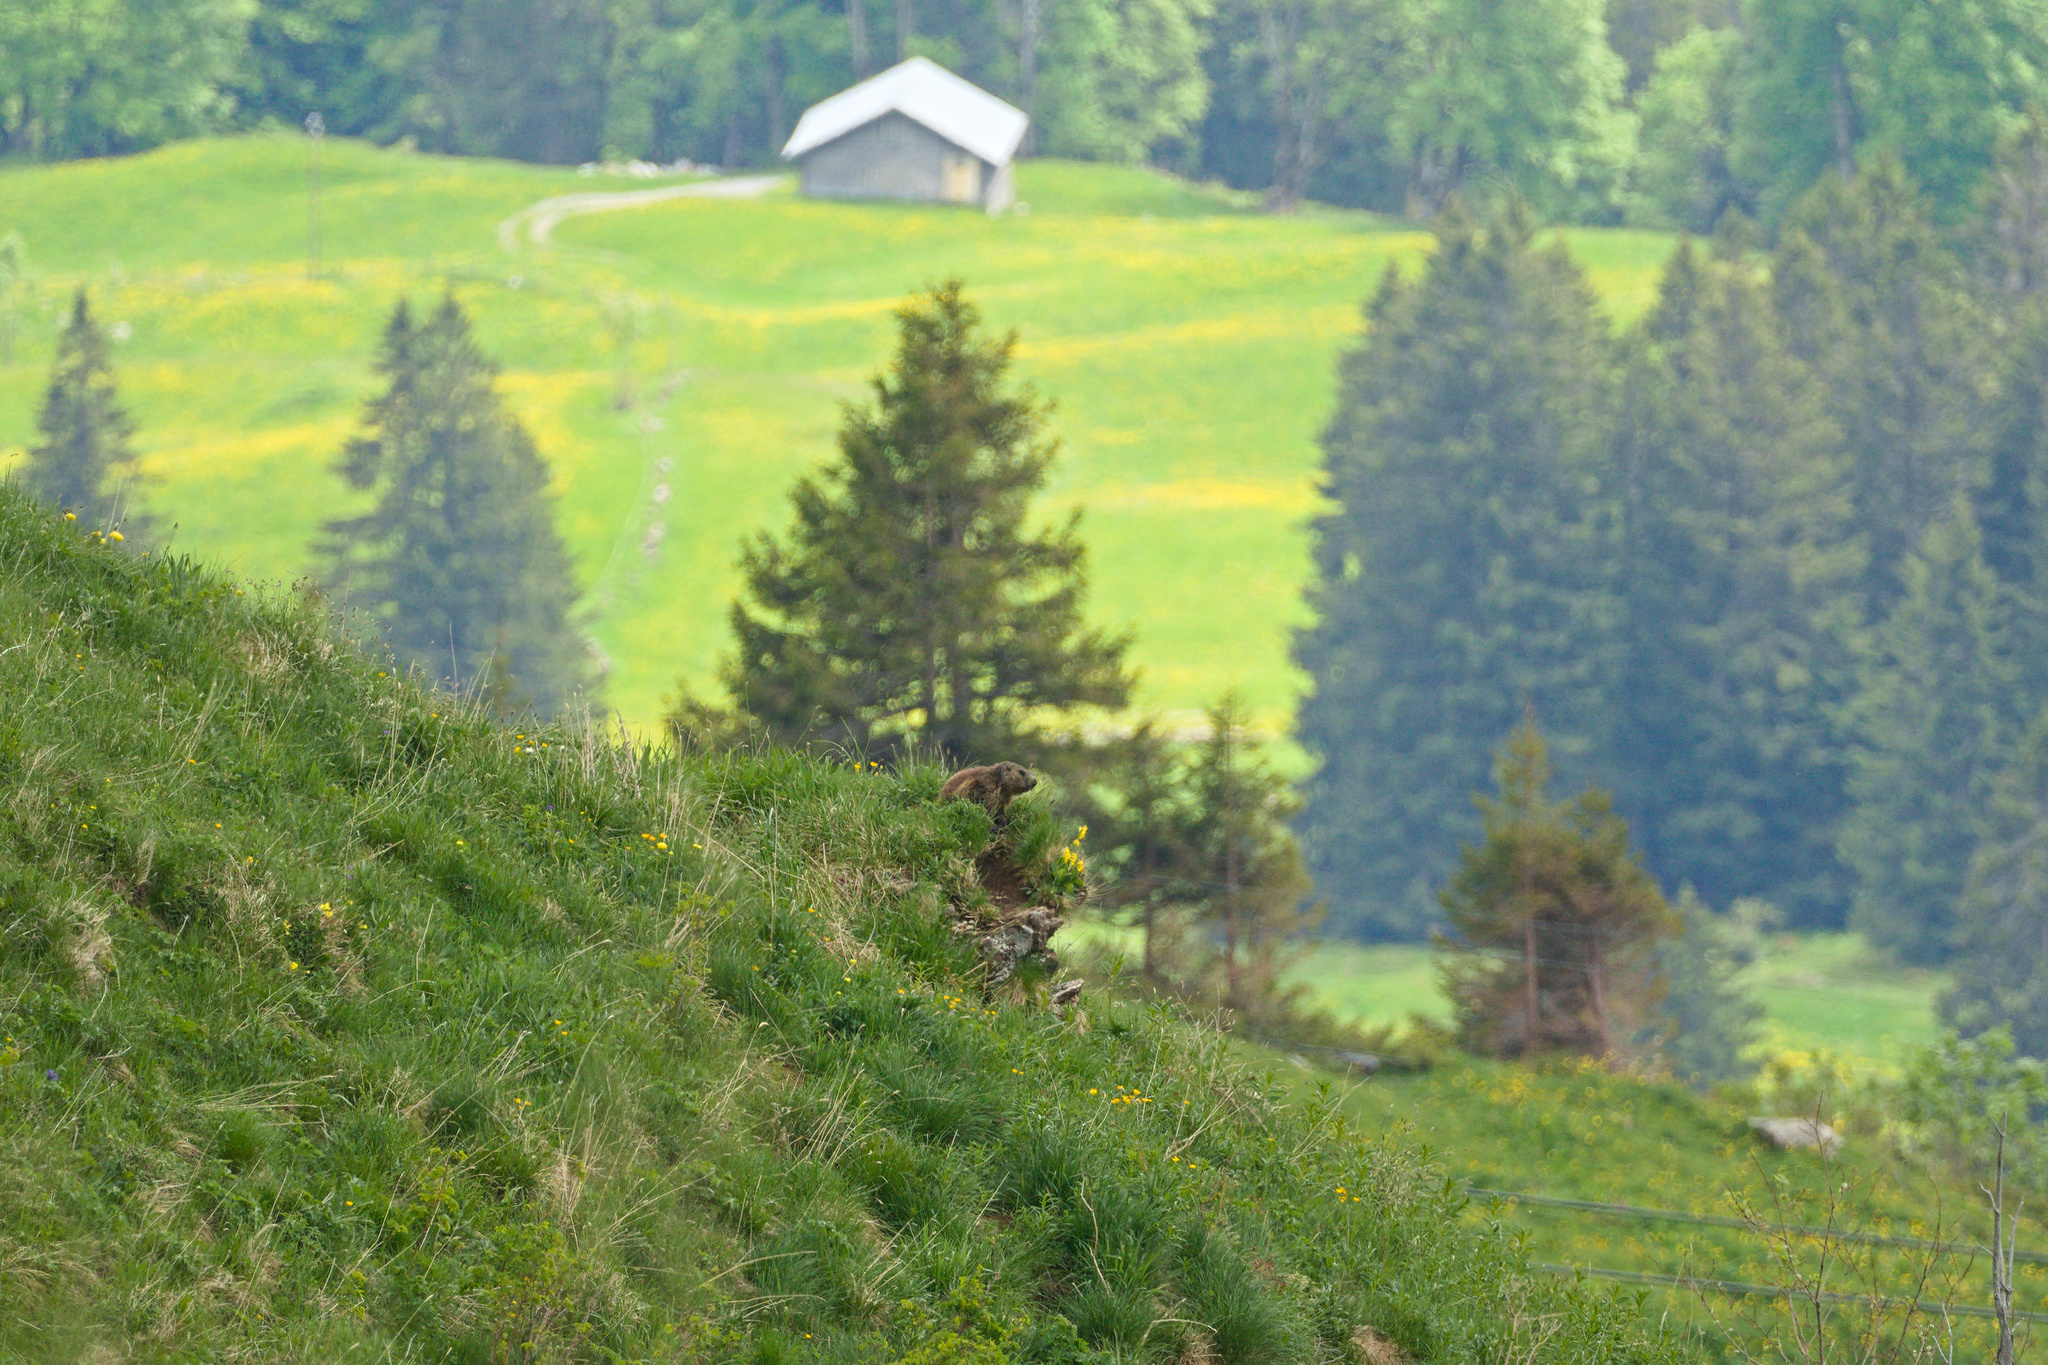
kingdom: Animalia
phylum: Chordata
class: Mammalia
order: Rodentia
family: Sciuridae
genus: Marmota
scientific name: Marmota marmota
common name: Alpine marmot
